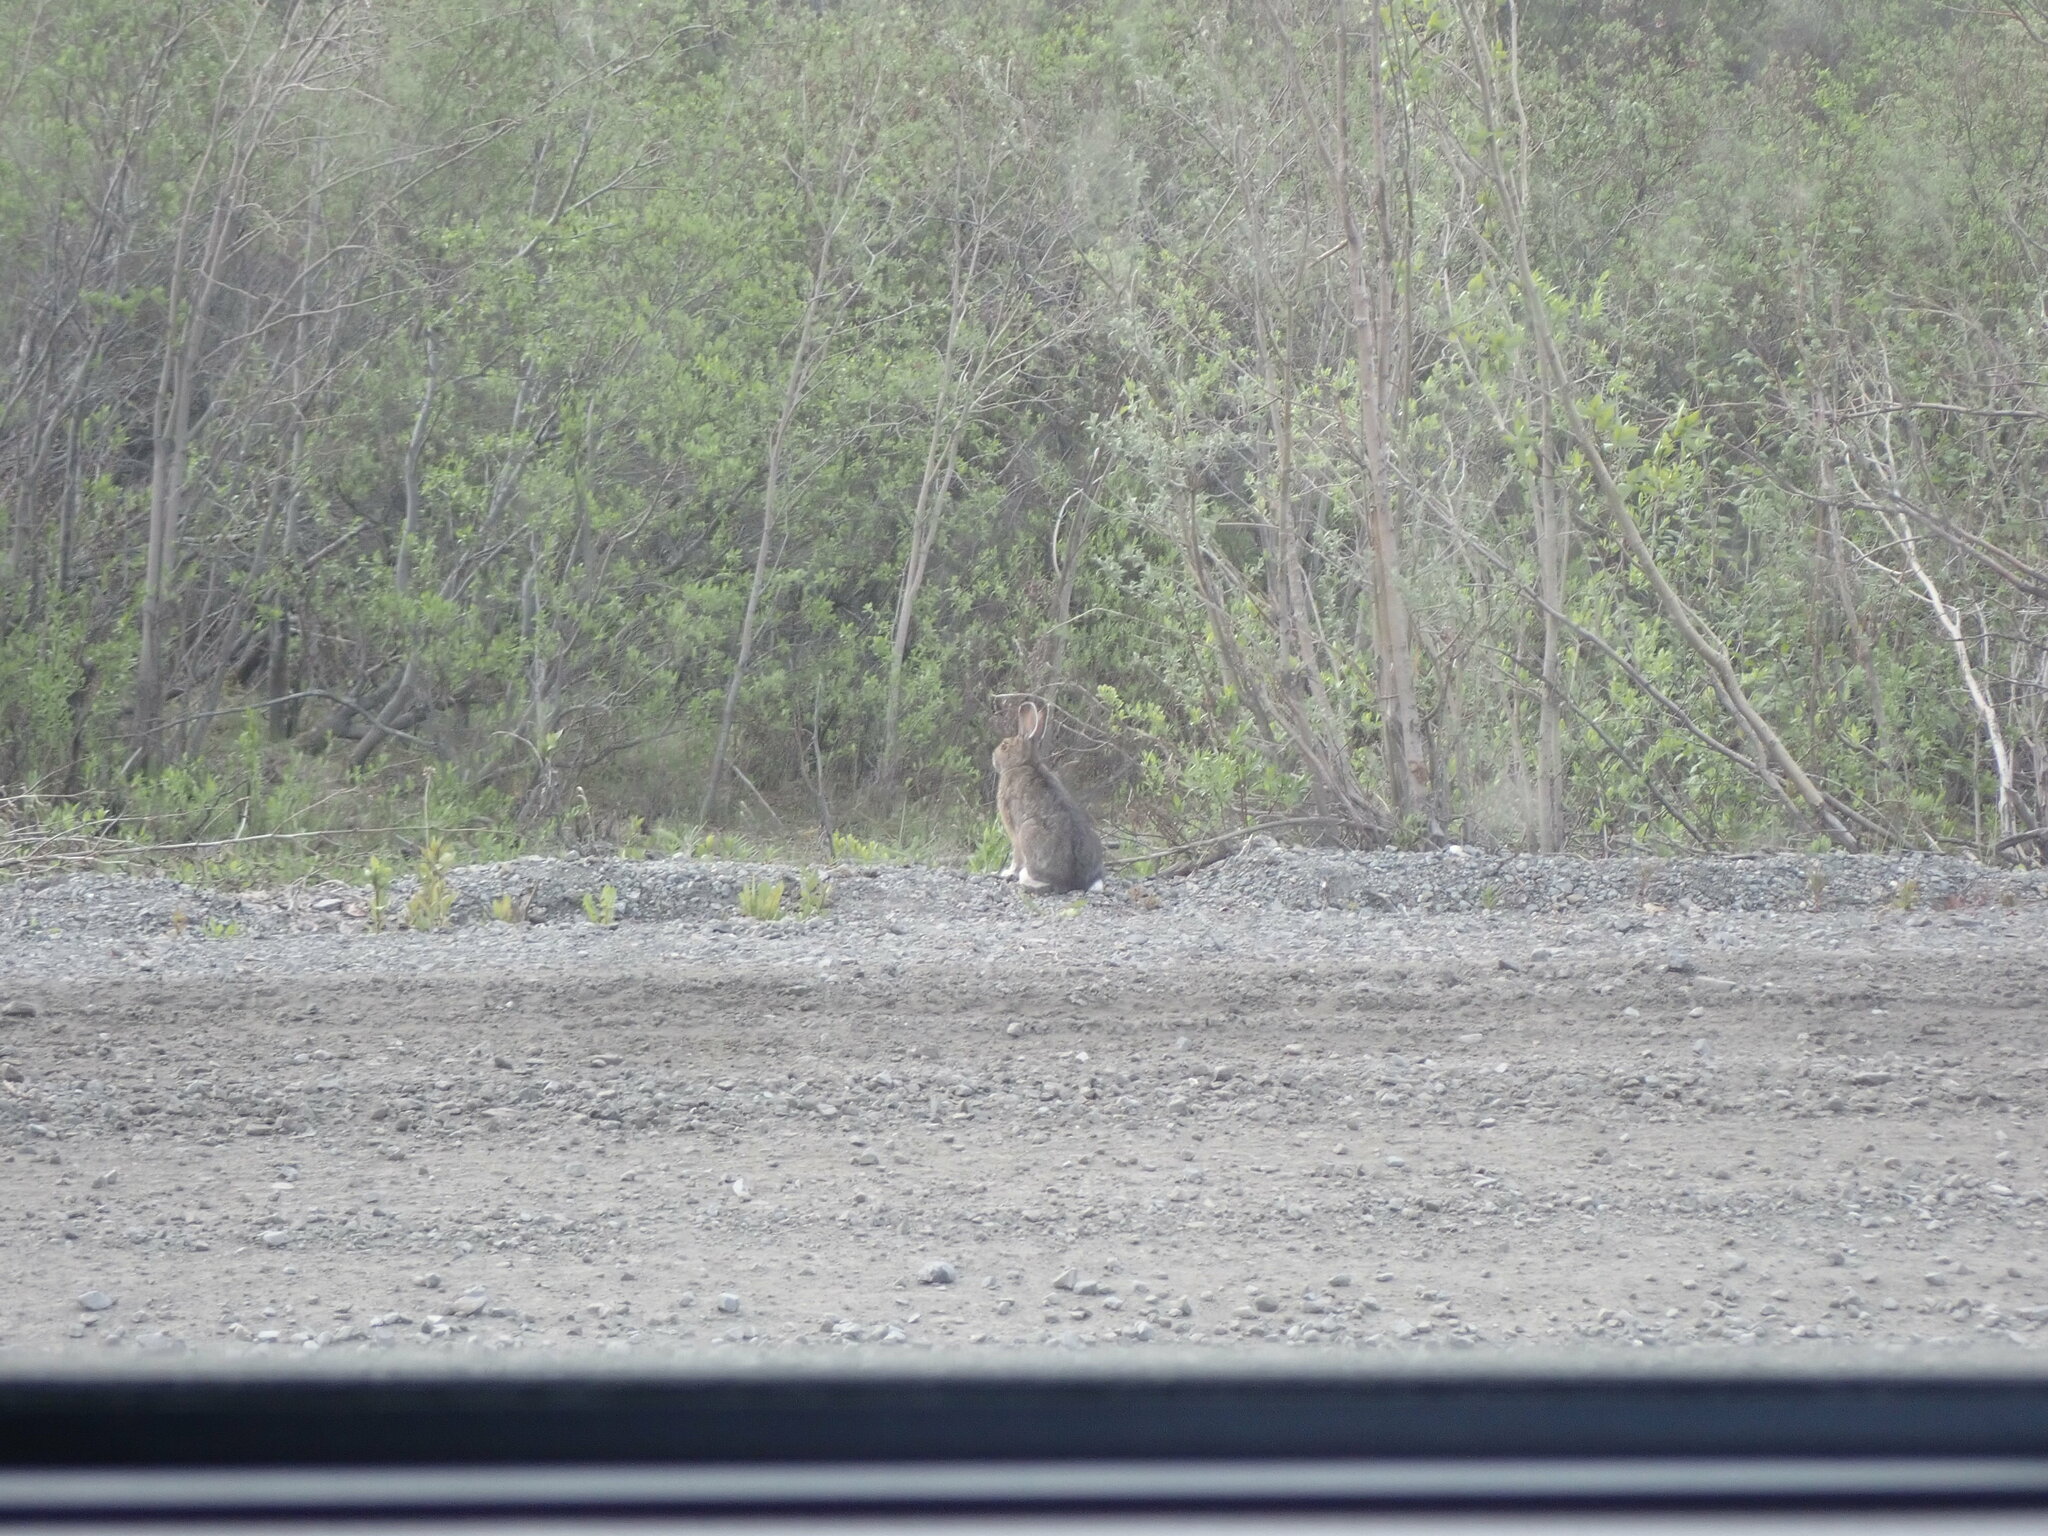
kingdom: Animalia
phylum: Chordata
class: Mammalia
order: Lagomorpha
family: Leporidae
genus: Lepus
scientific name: Lepus americanus
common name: Snowshoe hare
